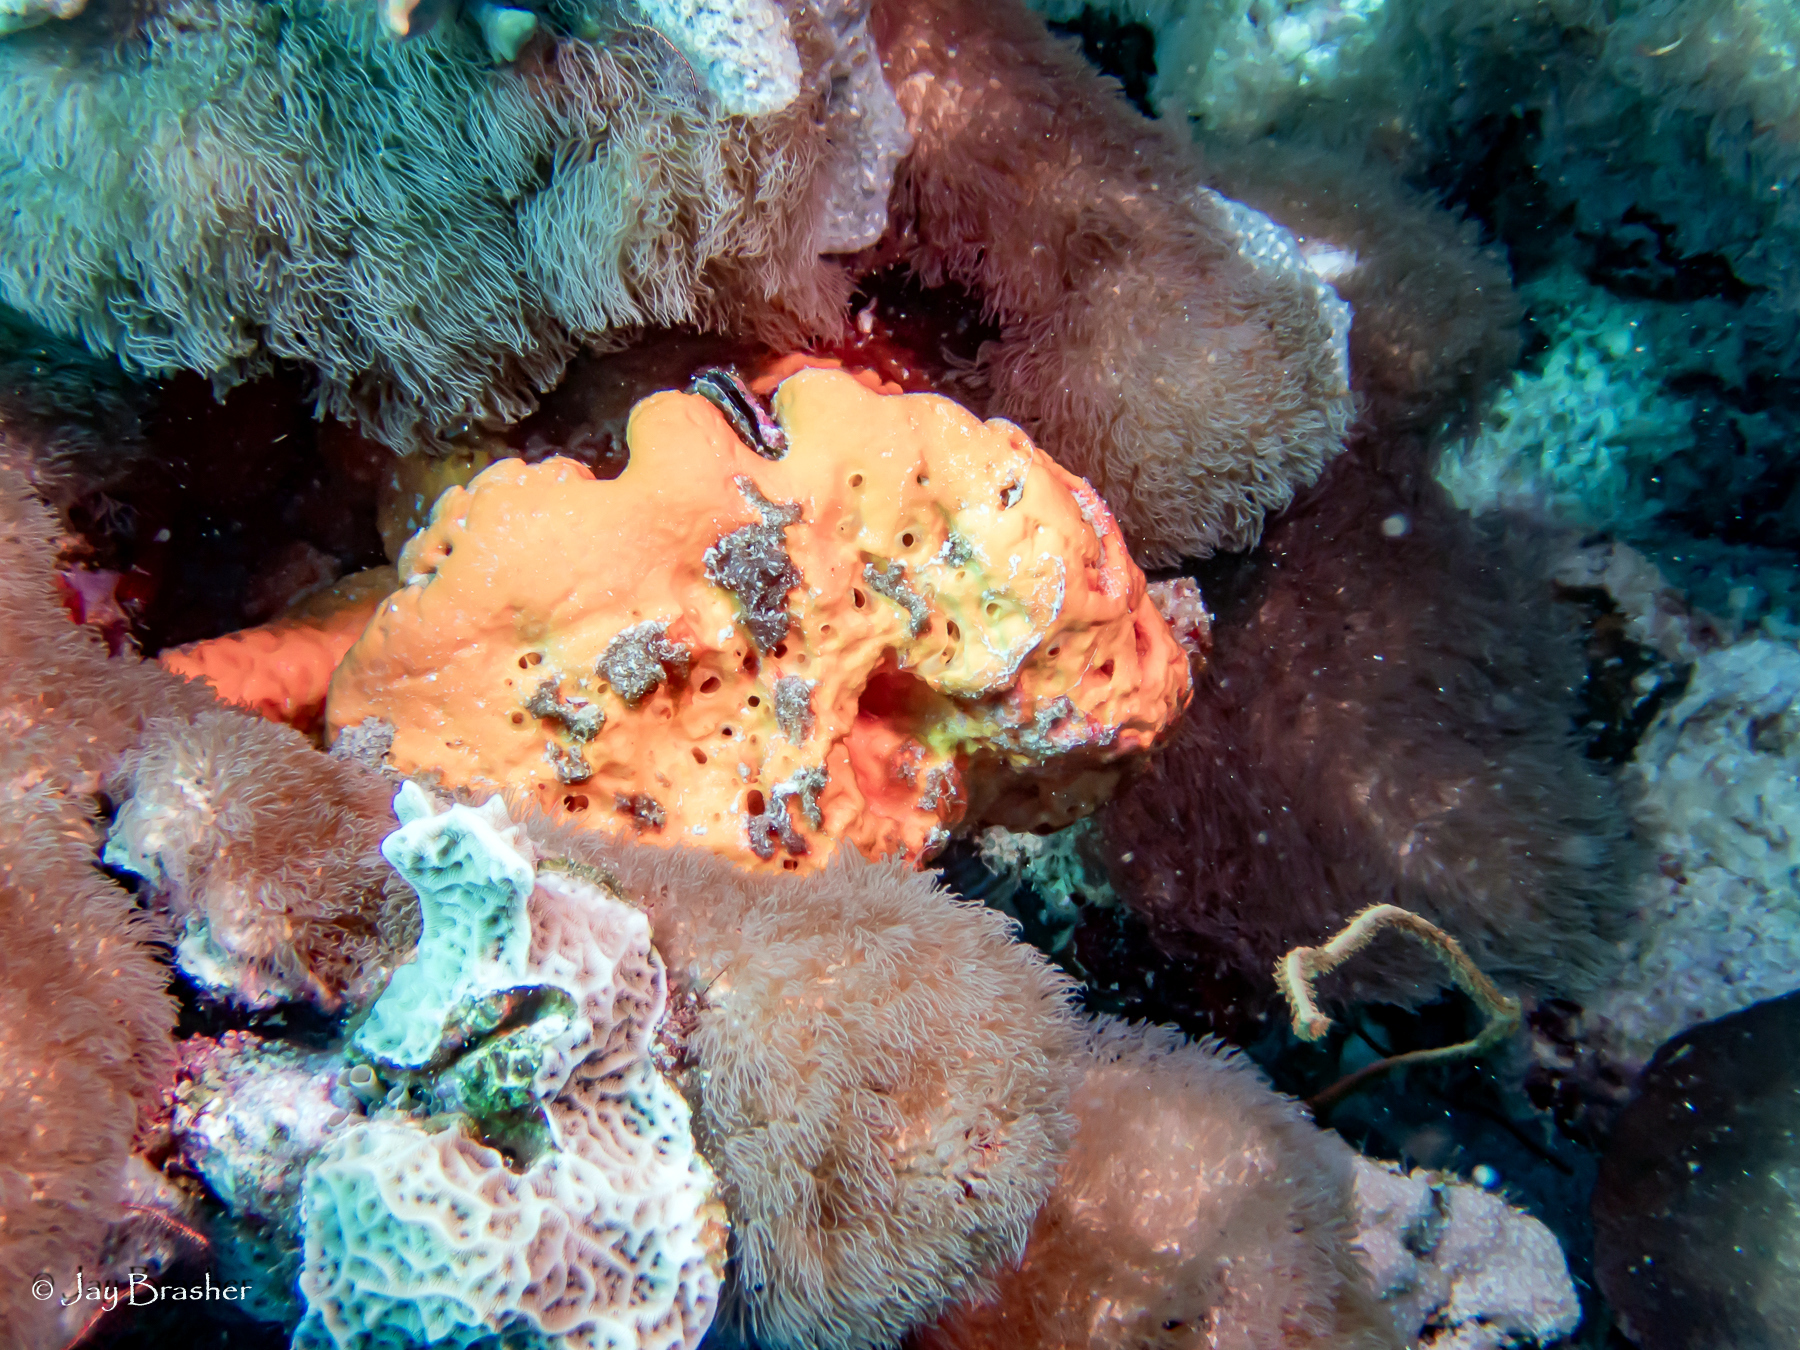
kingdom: Animalia
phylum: Cnidaria
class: Anthozoa
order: Scleralcyonacea
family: Erythropodiidae
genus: Erythropodium
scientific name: Erythropodium caribaeorum
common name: Encrusting gorgonian
